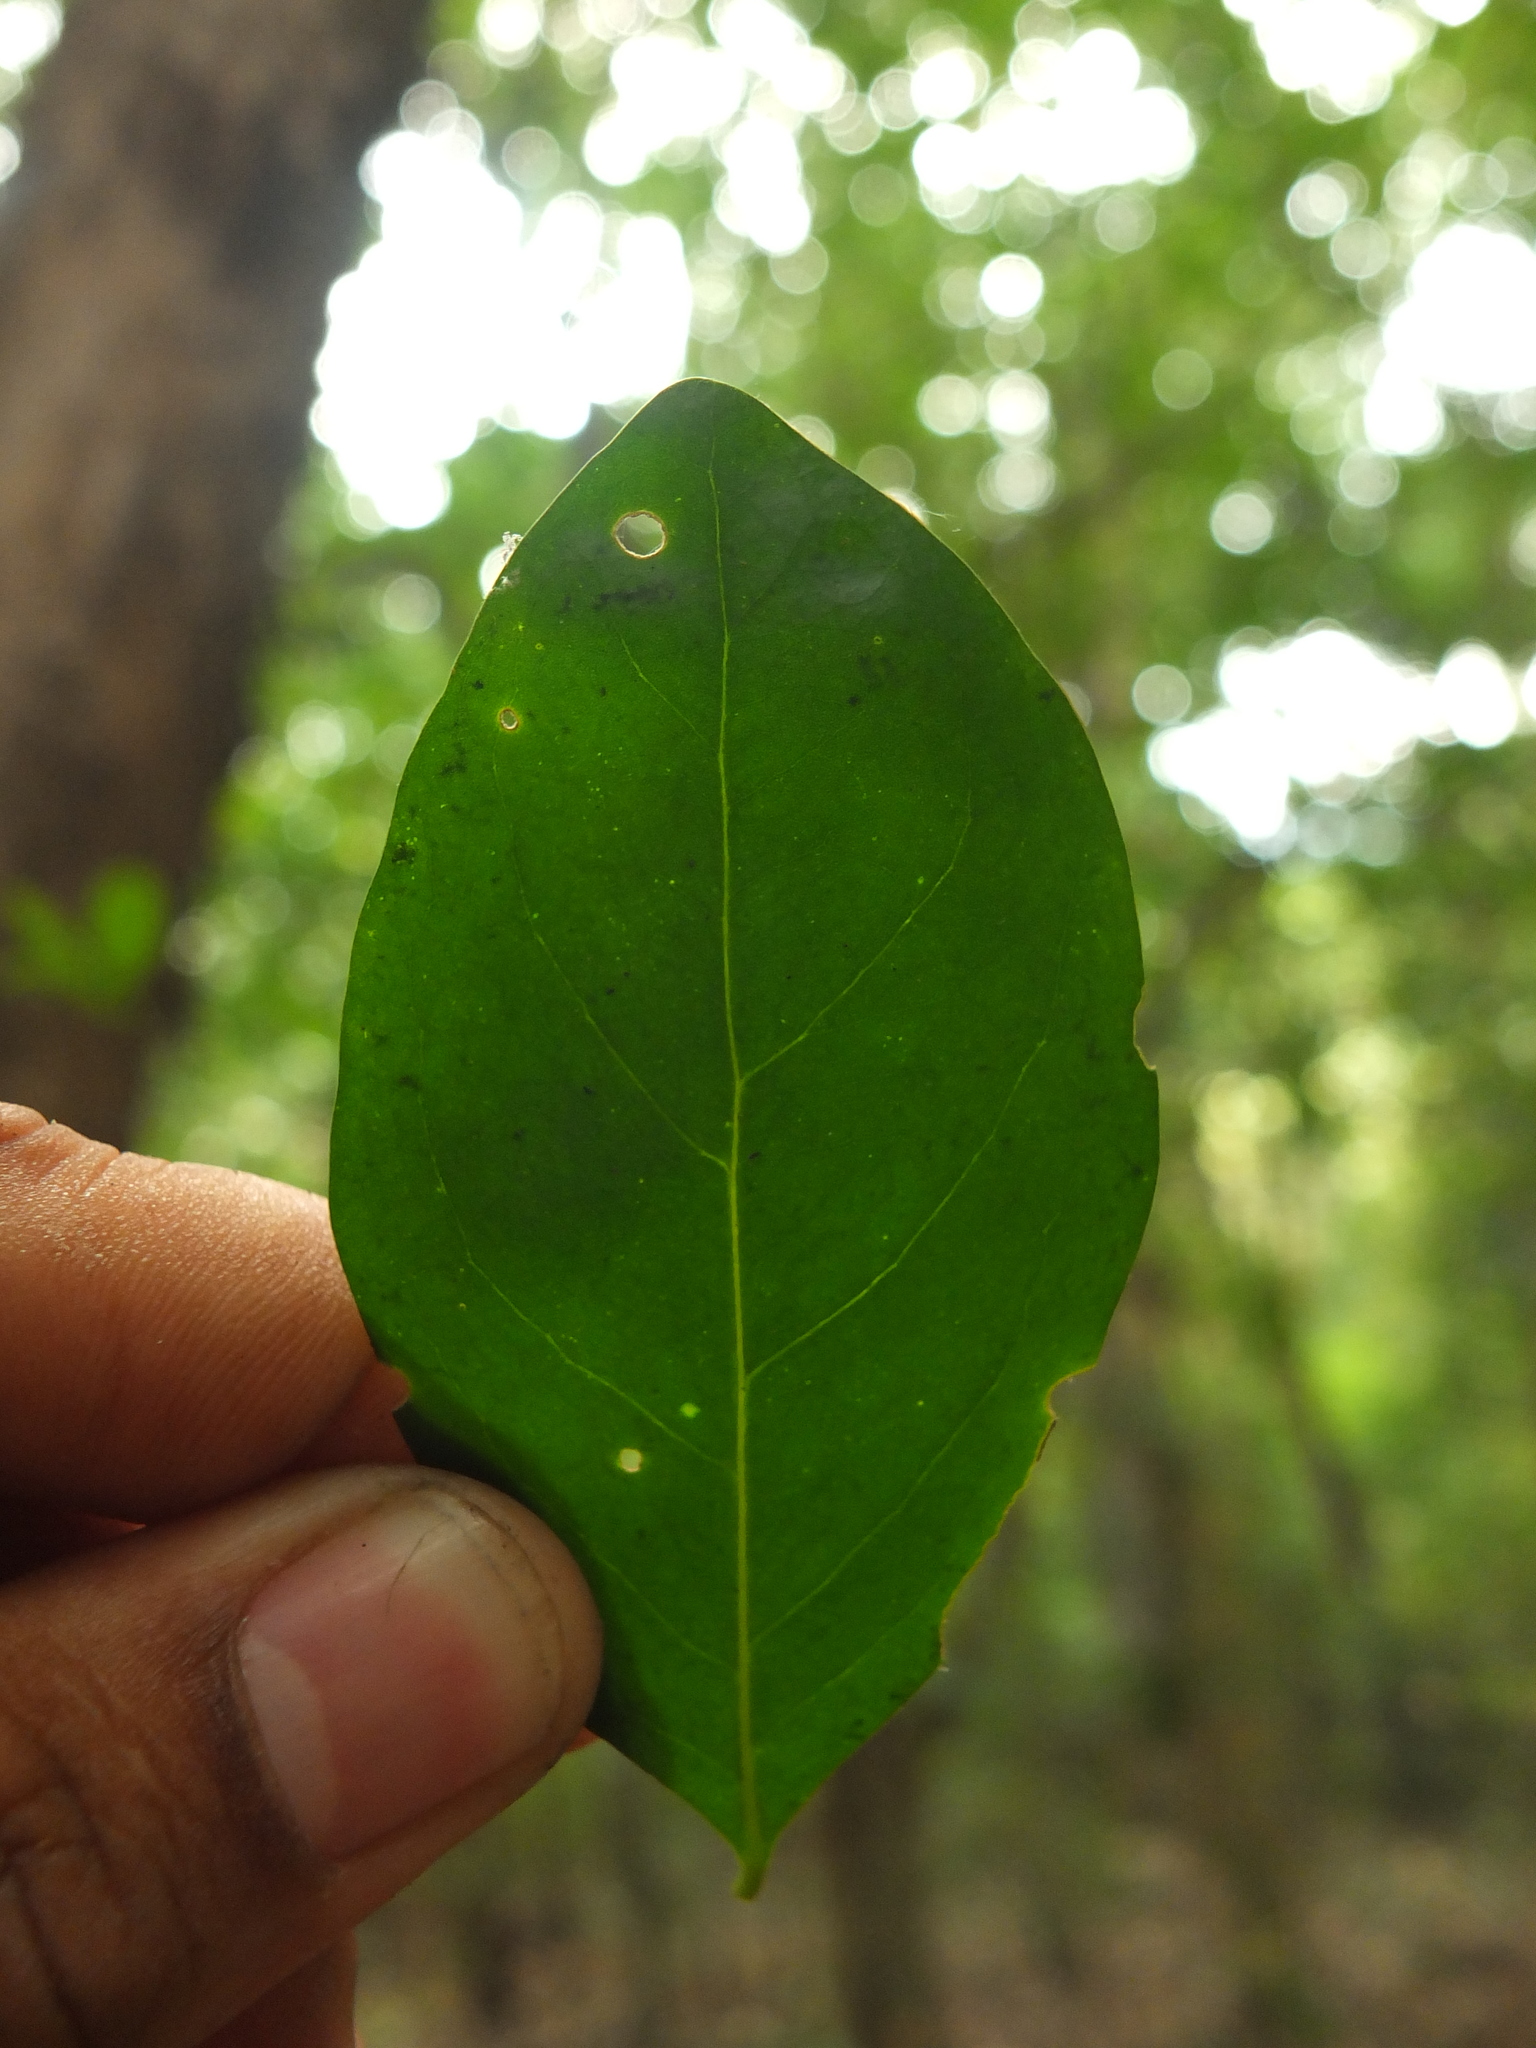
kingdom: Plantae
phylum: Tracheophyta
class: Magnoliopsida
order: Gentianales
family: Rubiaceae
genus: Benkara
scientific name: Benkara malabarica
